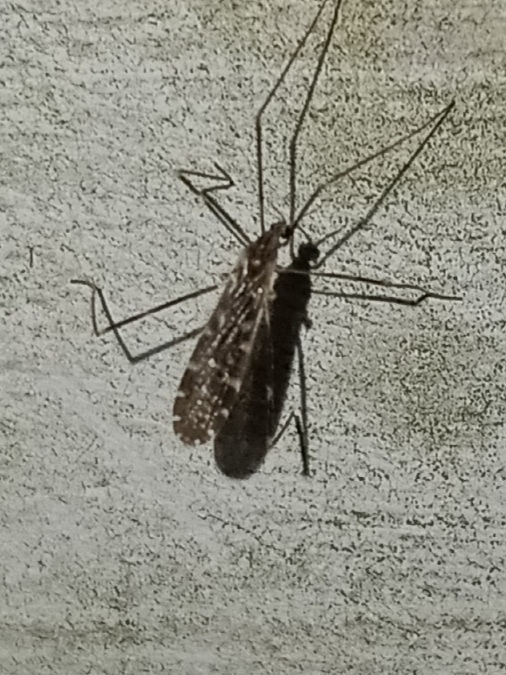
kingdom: Animalia
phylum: Arthropoda
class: Insecta
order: Diptera
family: Limoniidae
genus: Erioptera
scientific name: Erioptera caliptera
